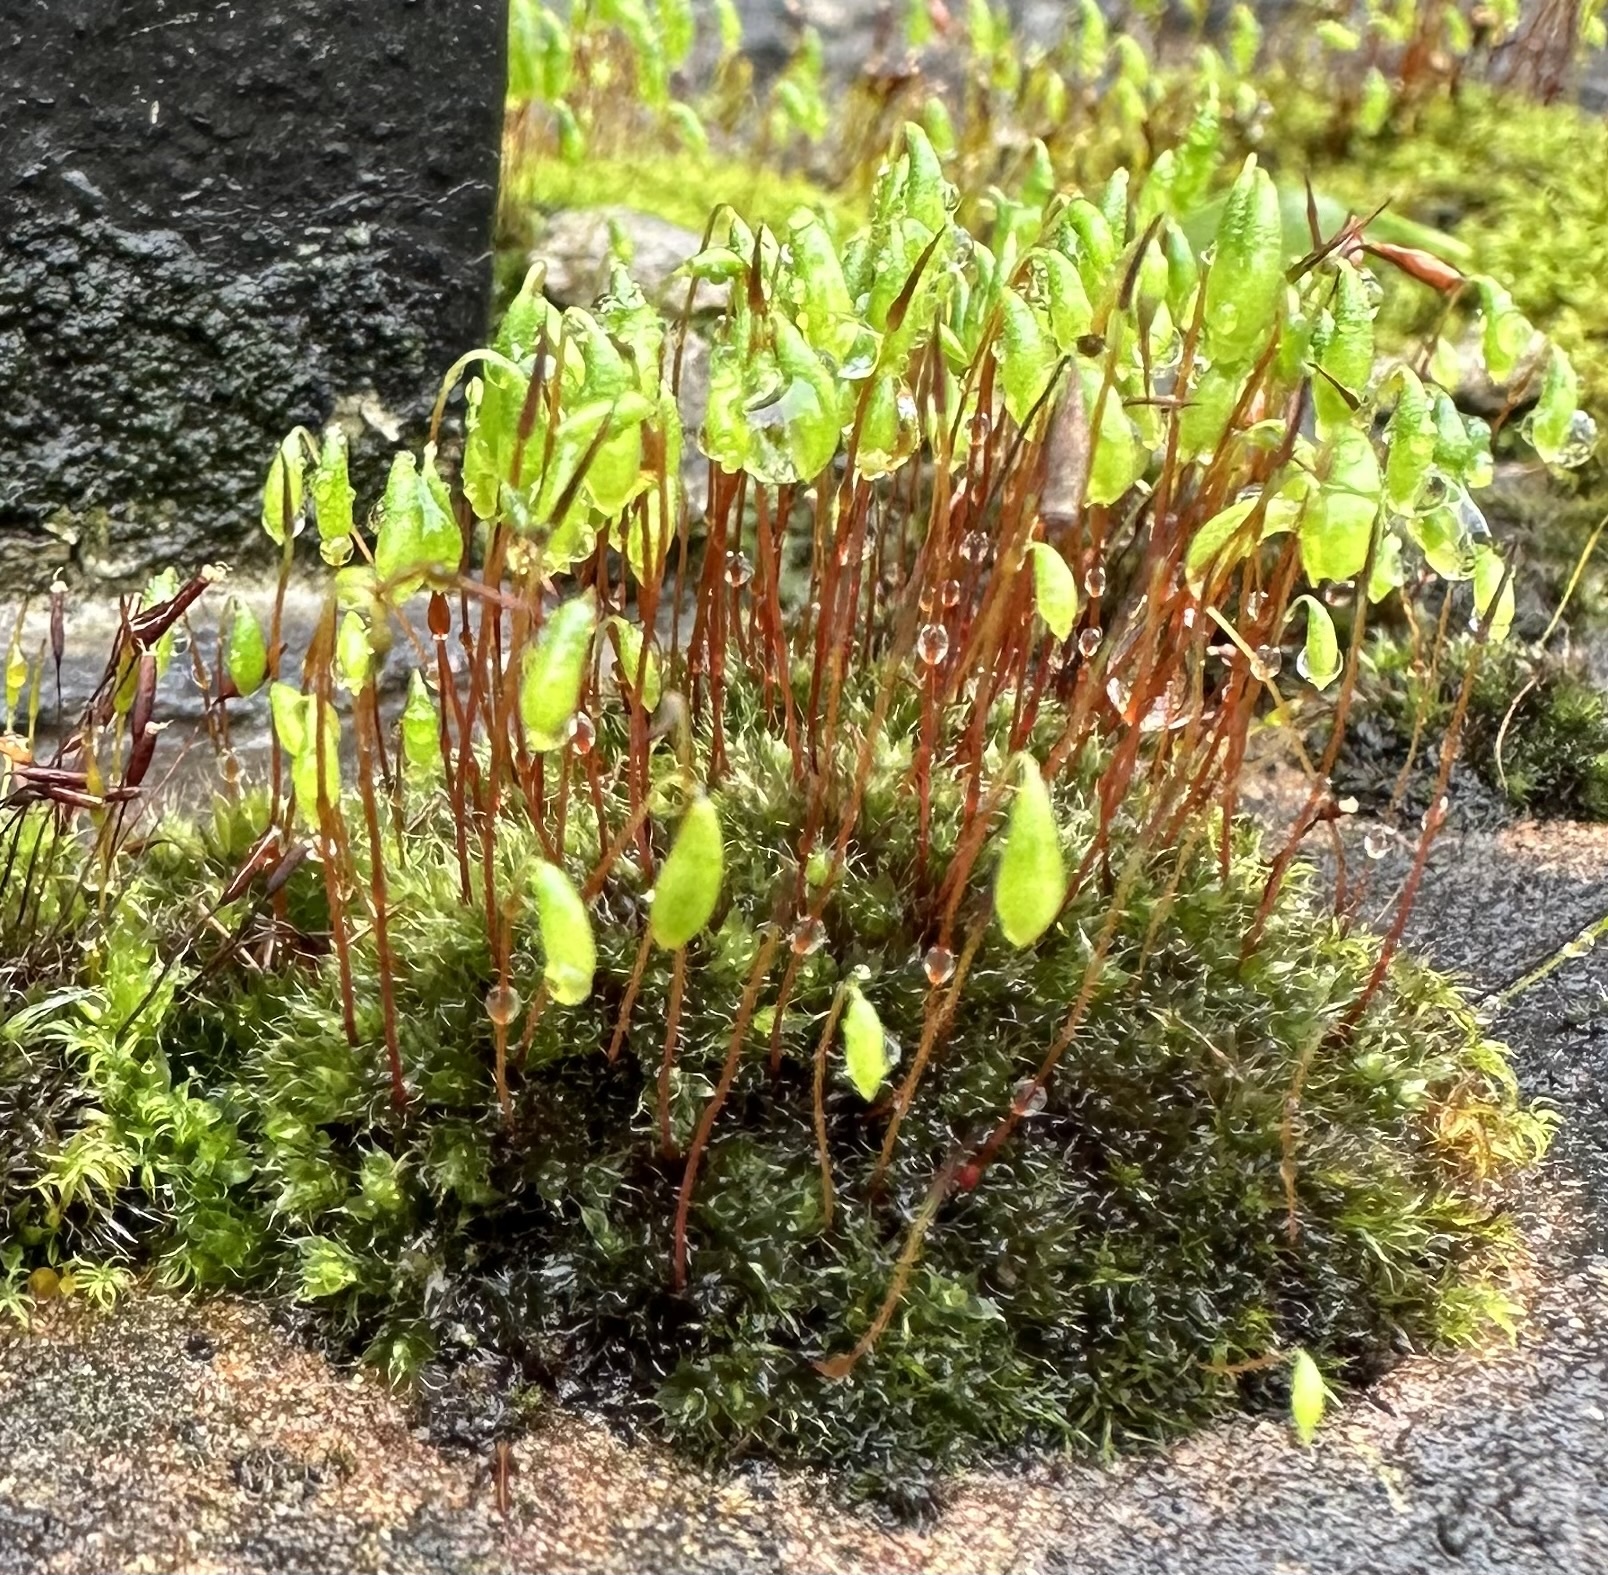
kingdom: Plantae
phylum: Bryophyta
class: Bryopsida
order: Bryales
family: Bryaceae
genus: Rosulabryum
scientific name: Rosulabryum capillare
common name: Capillary thread-moss
